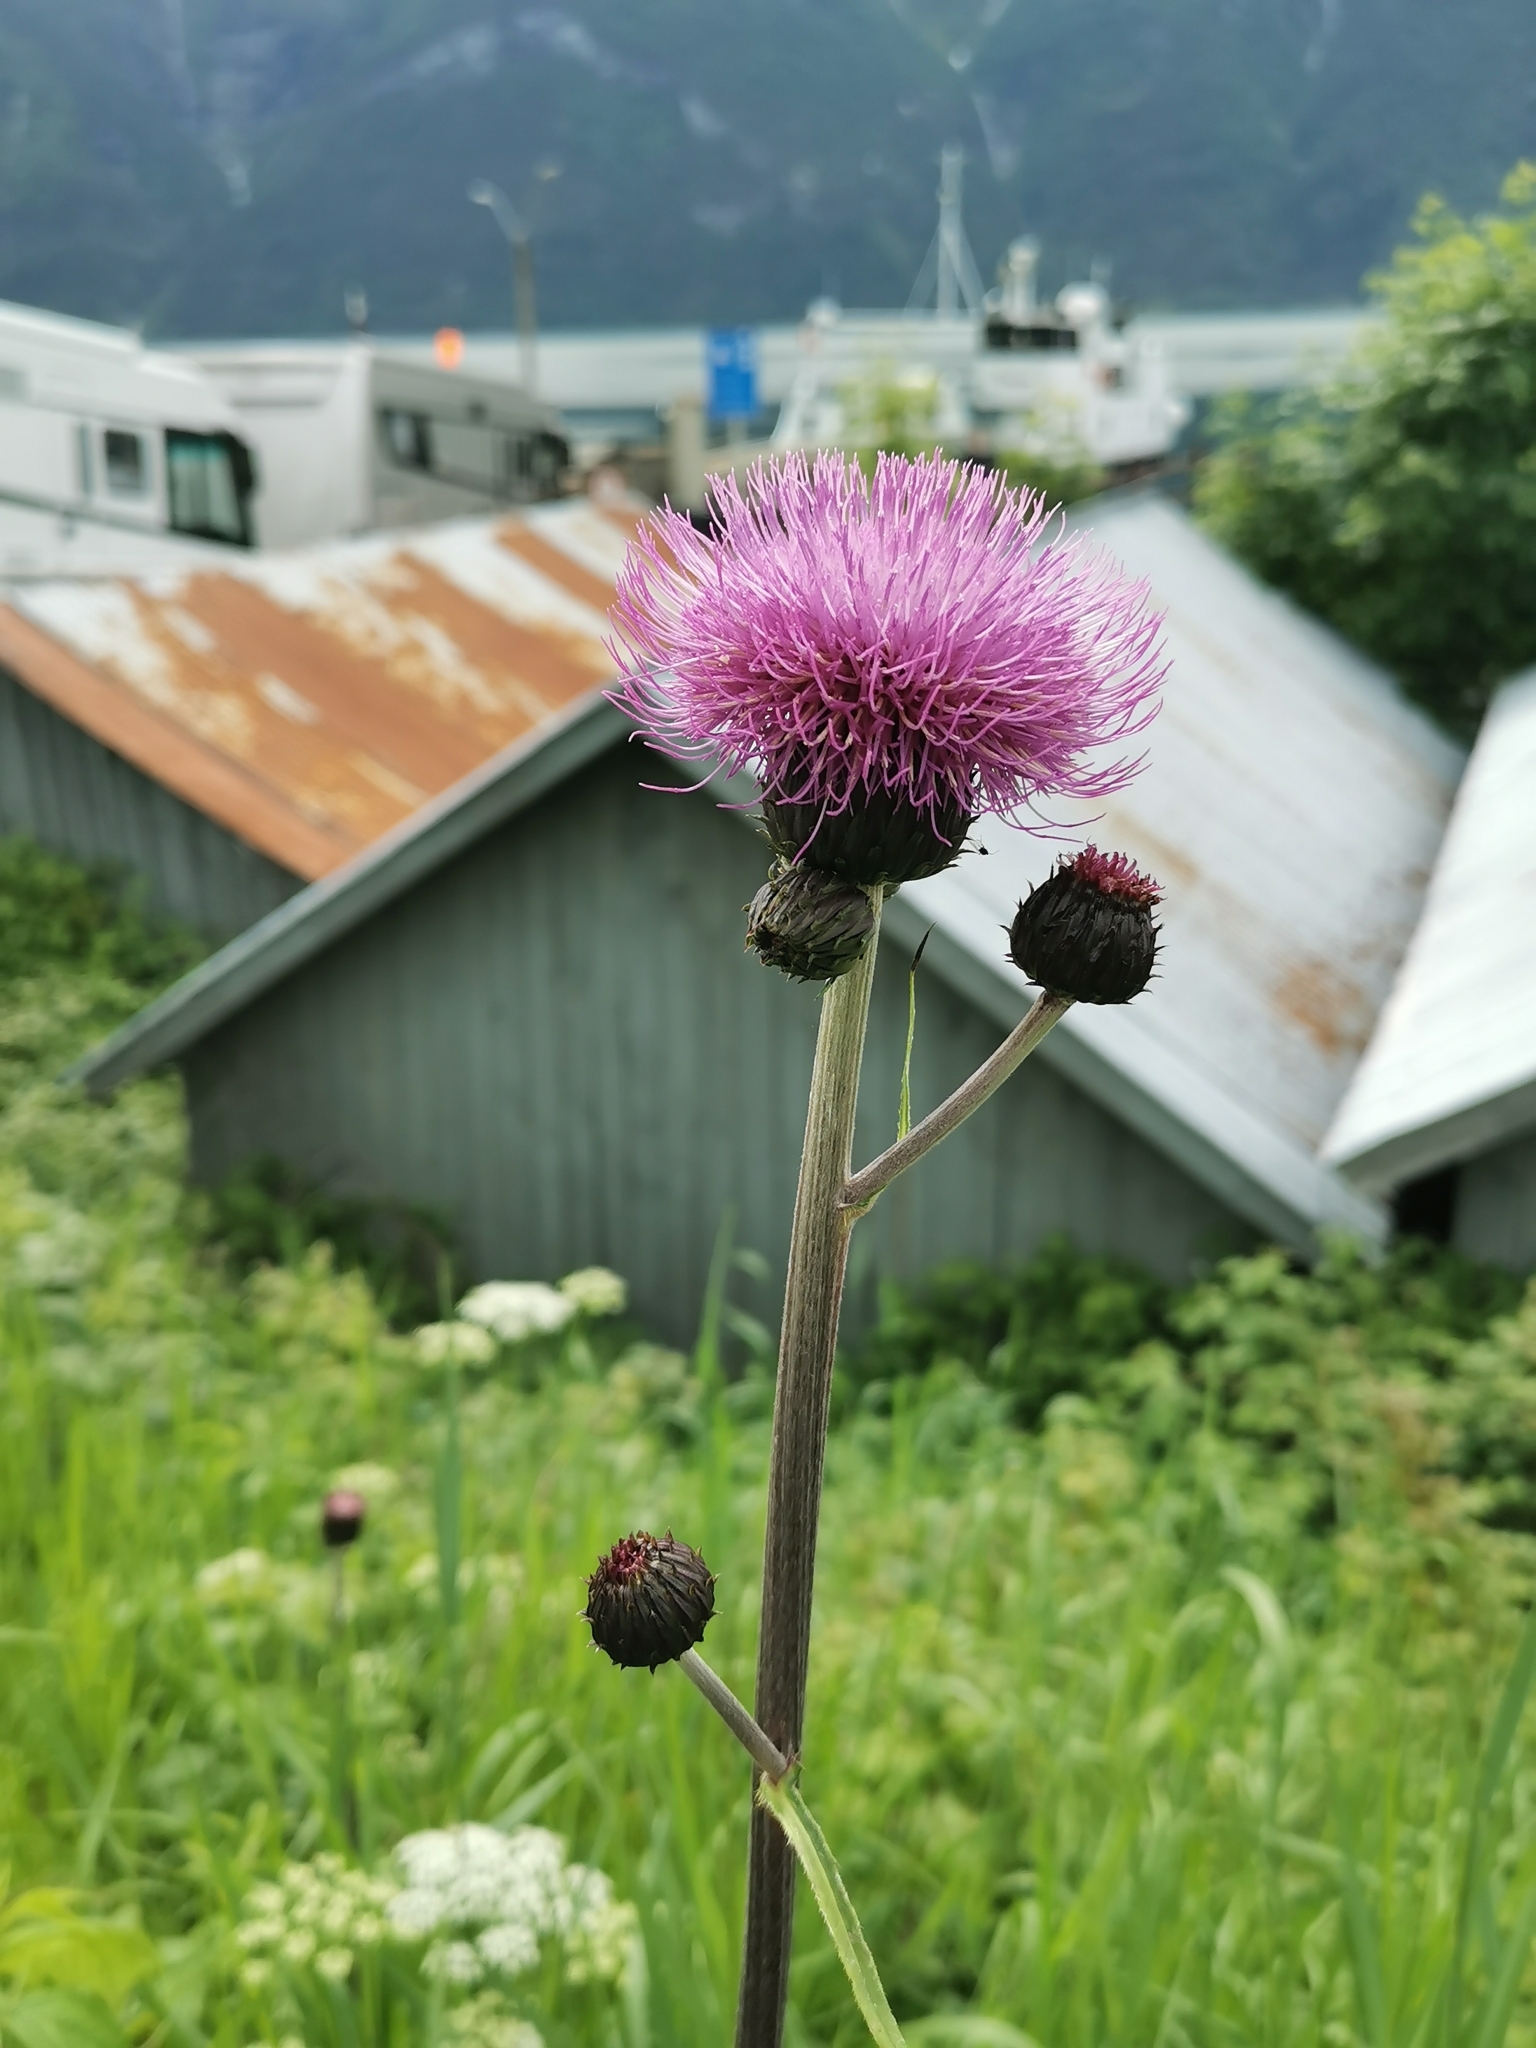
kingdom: Plantae
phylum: Tracheophyta
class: Magnoliopsida
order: Asterales
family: Asteraceae
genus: Cirsium
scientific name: Cirsium heterophyllum
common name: Melancholy thistle
